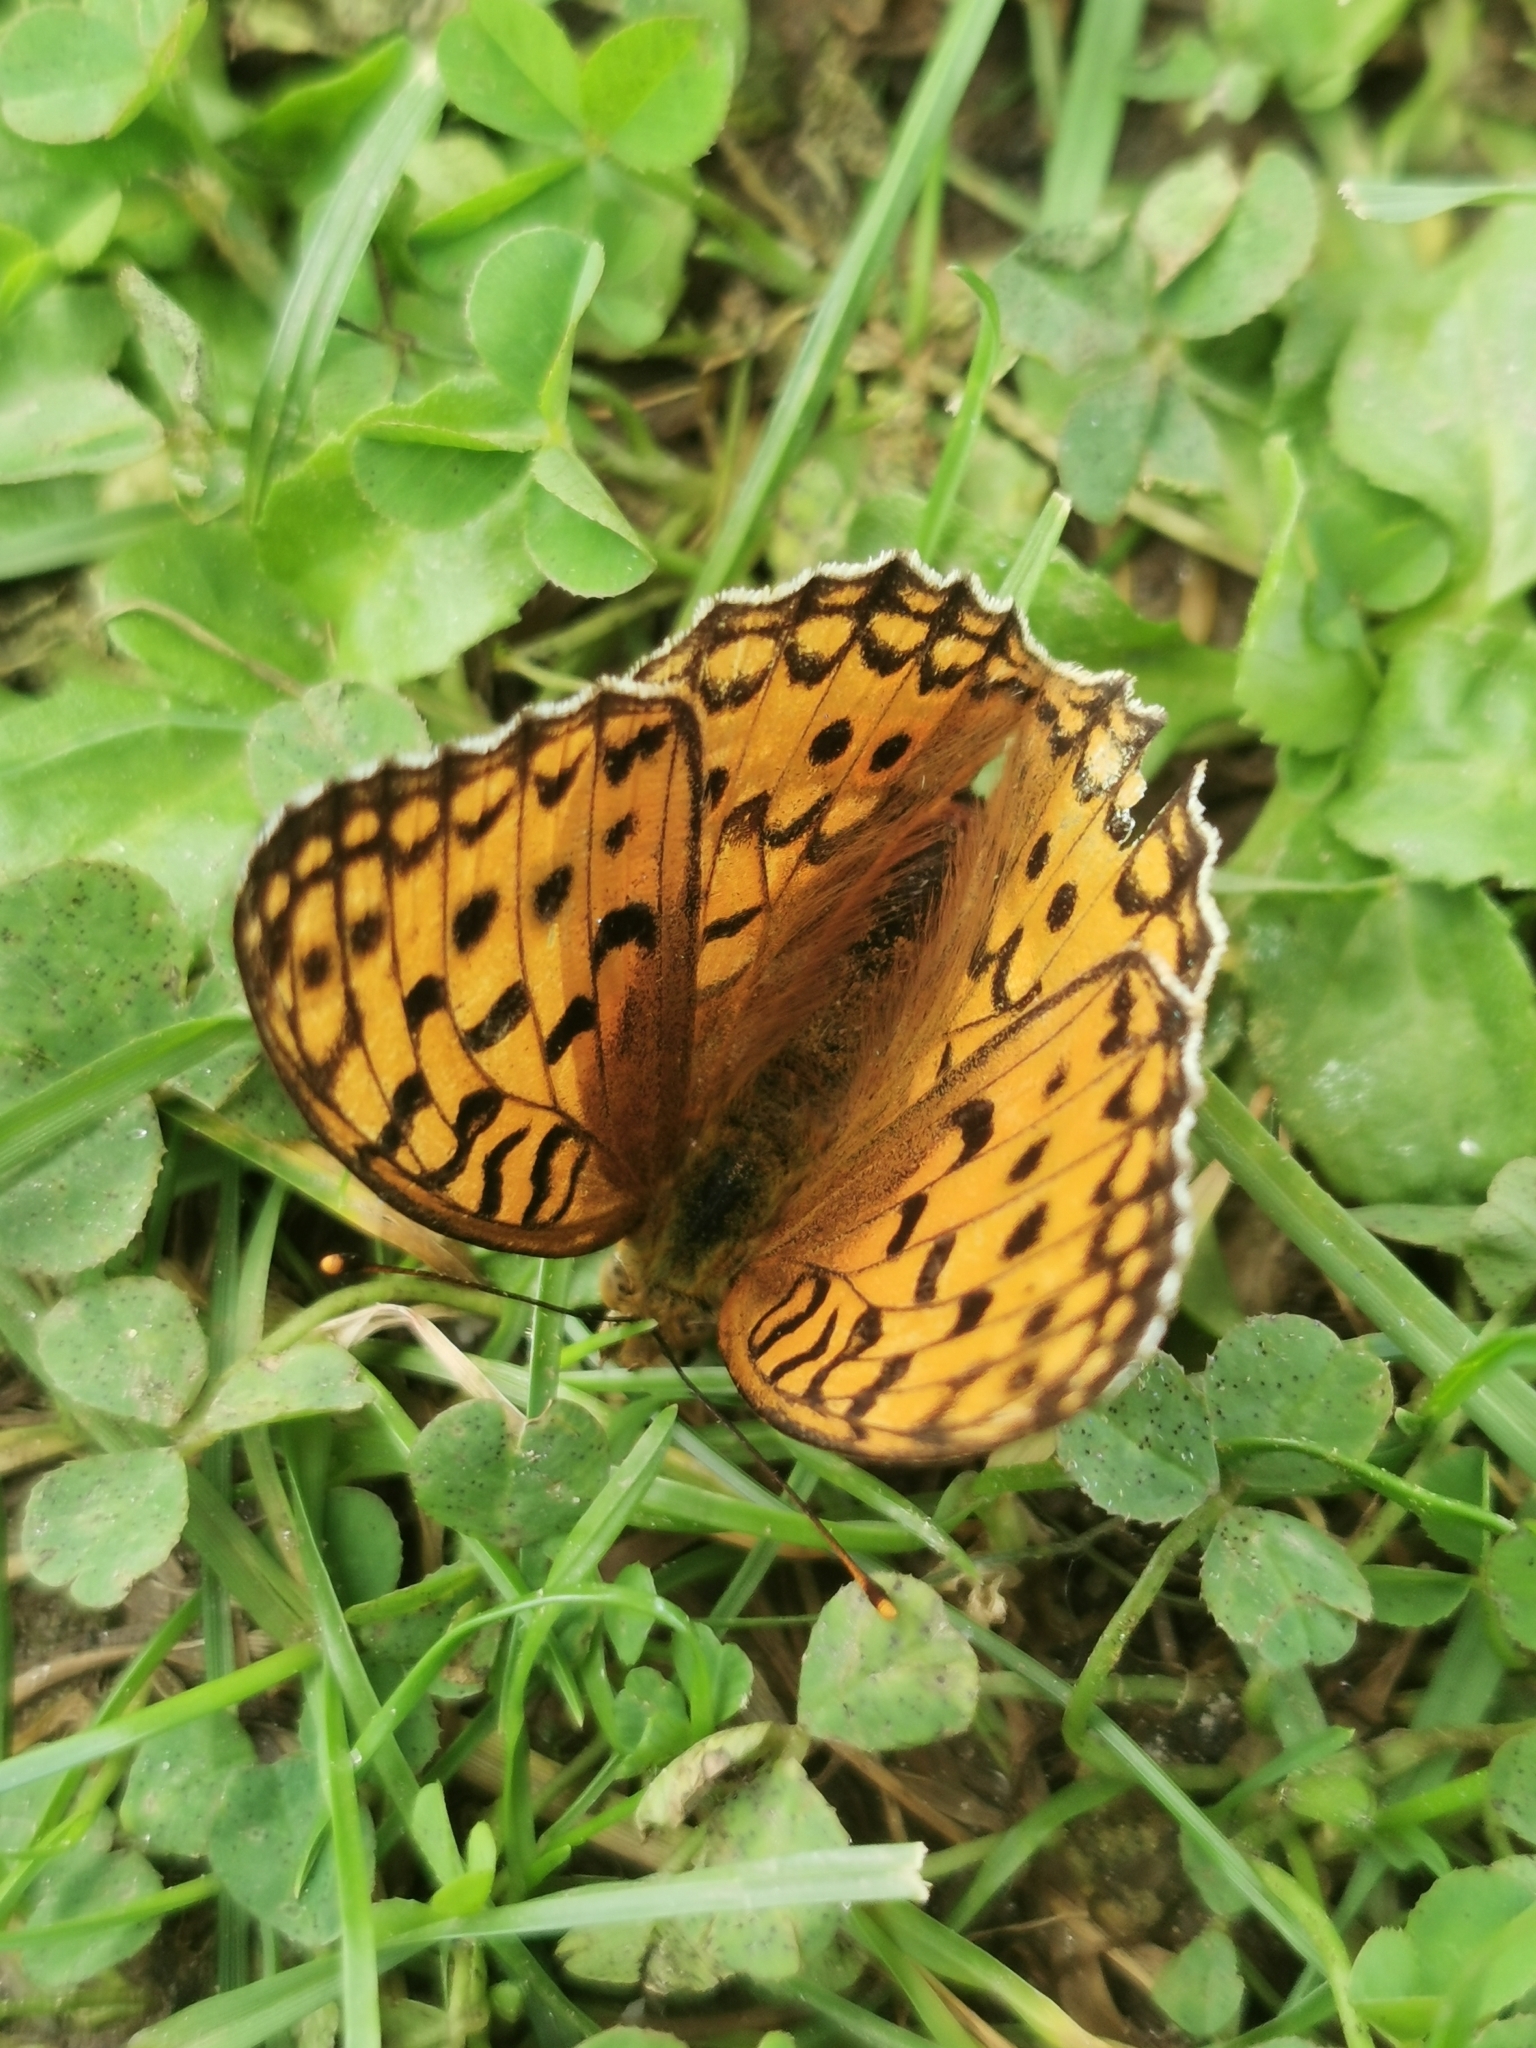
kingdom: Animalia
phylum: Arthropoda
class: Insecta
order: Lepidoptera
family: Nymphalidae
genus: Fabriciana
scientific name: Fabriciana adippe
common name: High brown fritillary
